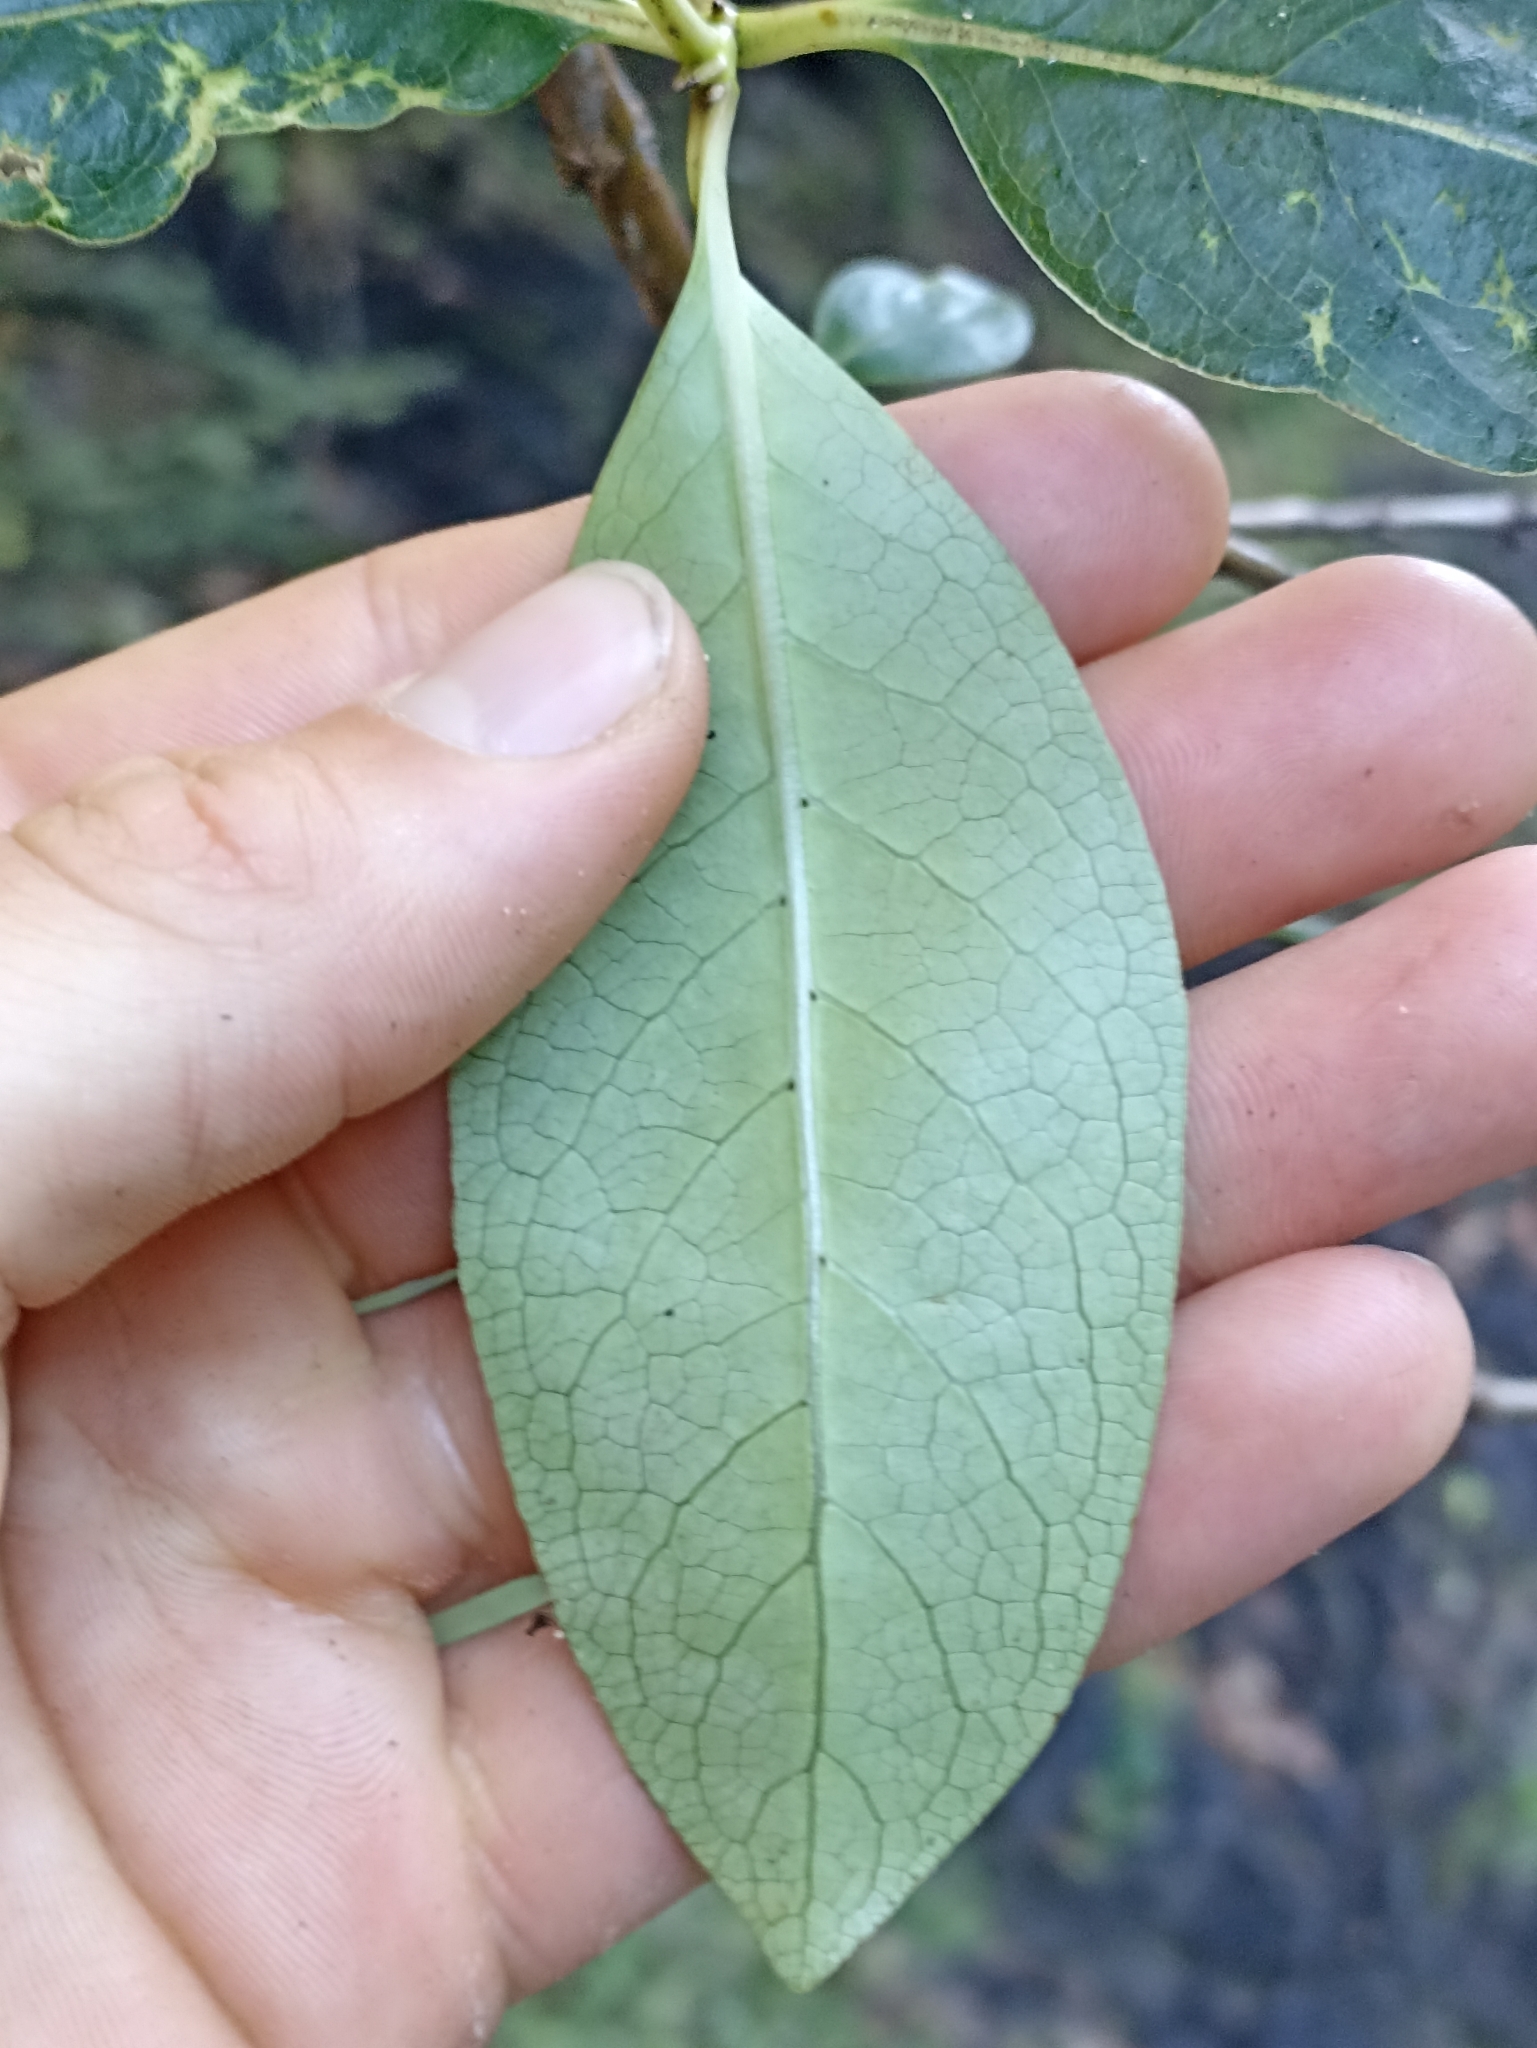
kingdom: Plantae
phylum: Tracheophyta
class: Magnoliopsida
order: Gentianales
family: Rubiaceae
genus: Coprosma
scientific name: Coprosma robusta
